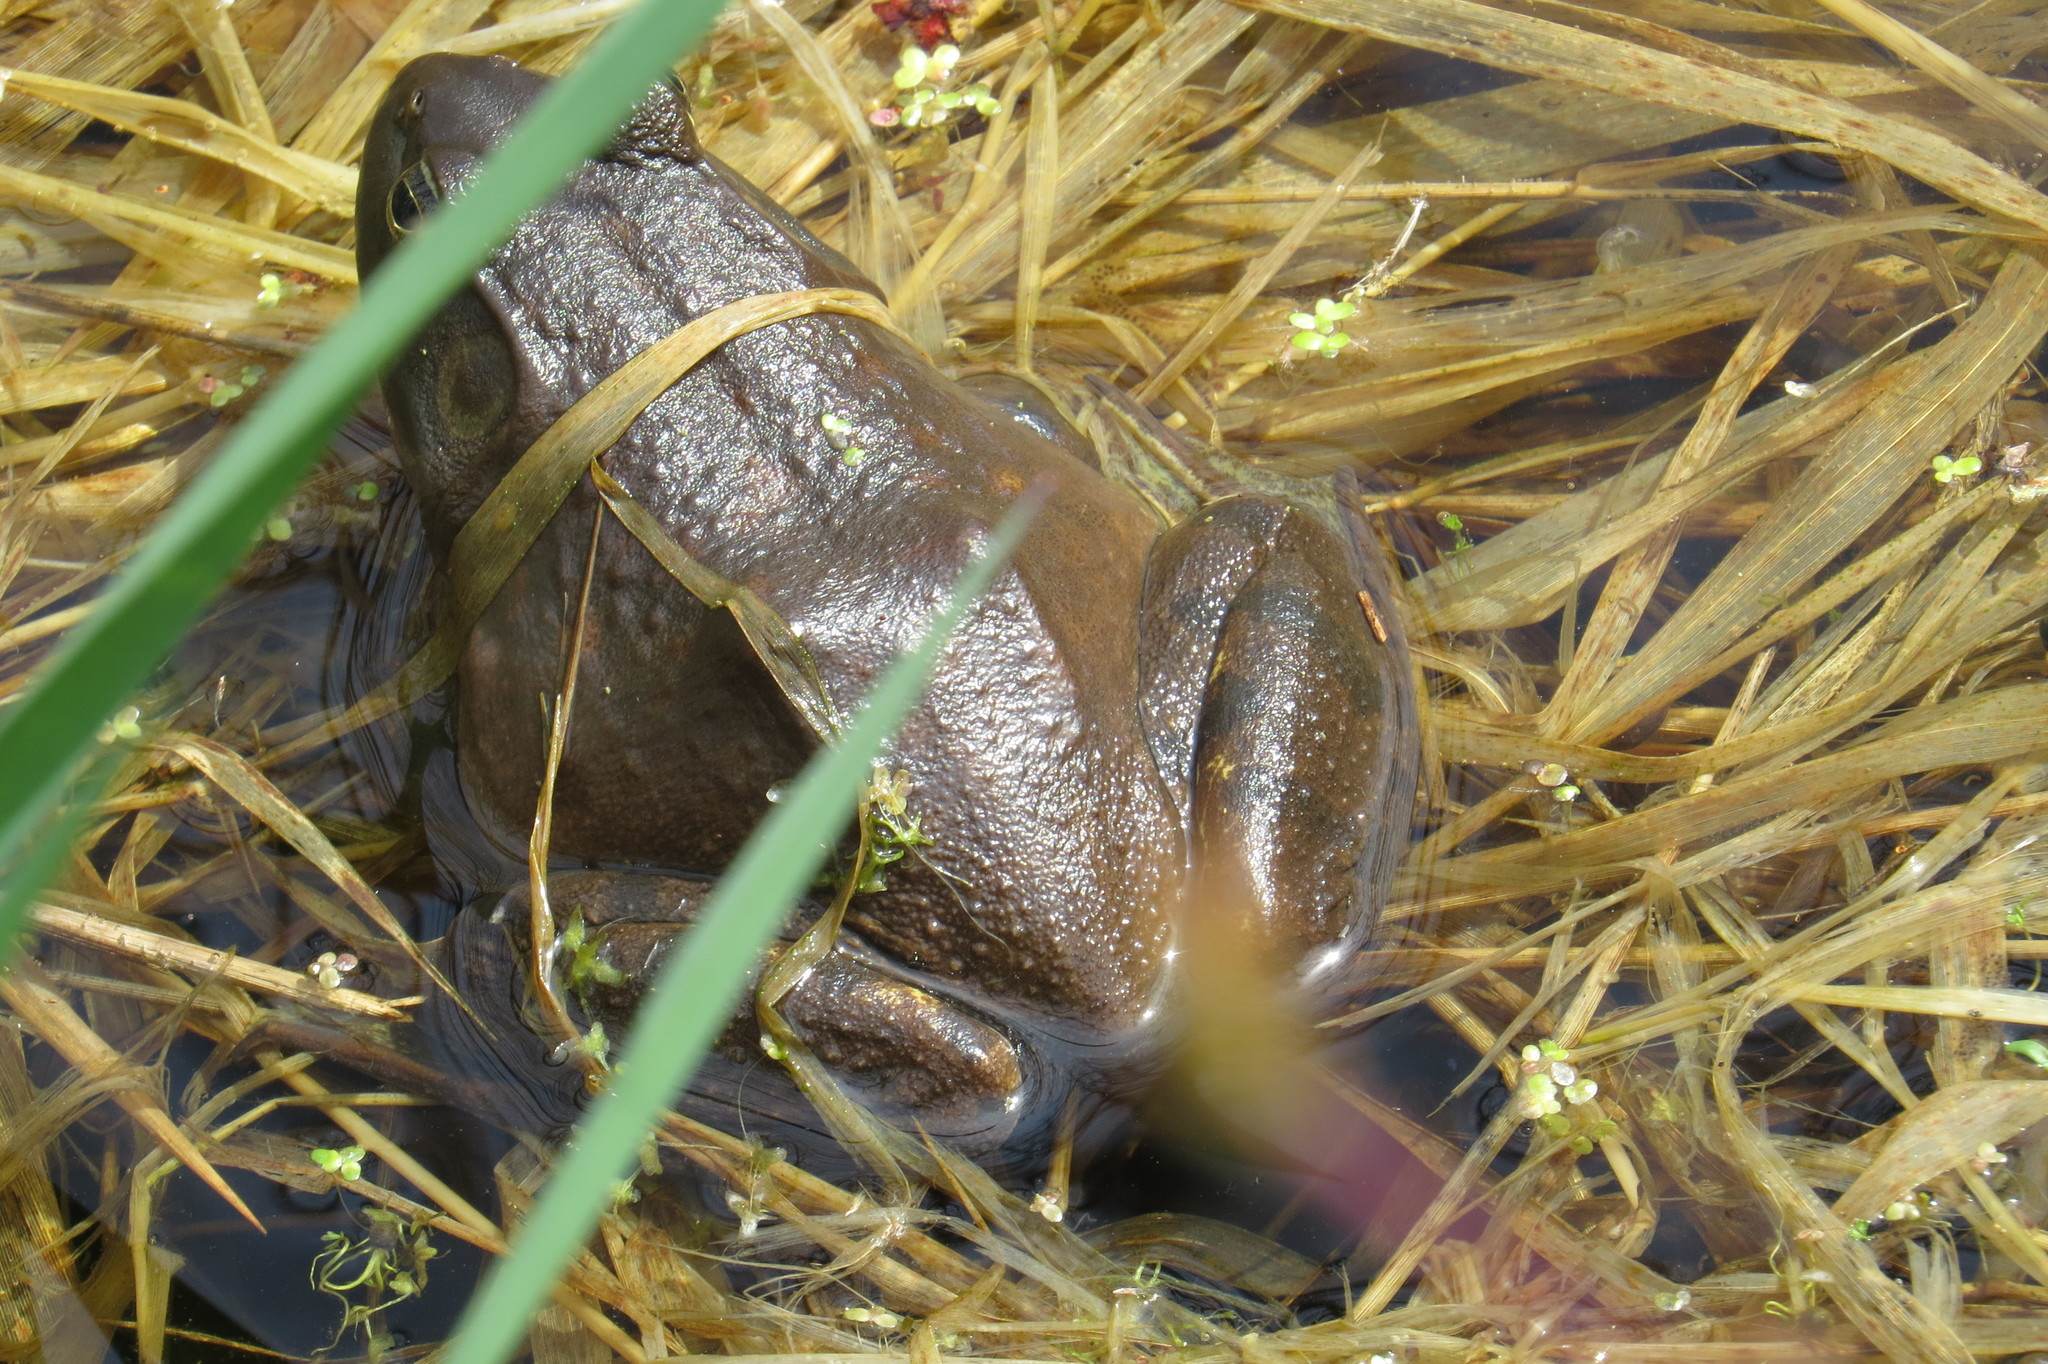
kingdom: Animalia
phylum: Chordata
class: Amphibia
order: Anura
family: Ranidae
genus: Lithobates
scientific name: Lithobates catesbeianus
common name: American bullfrog
